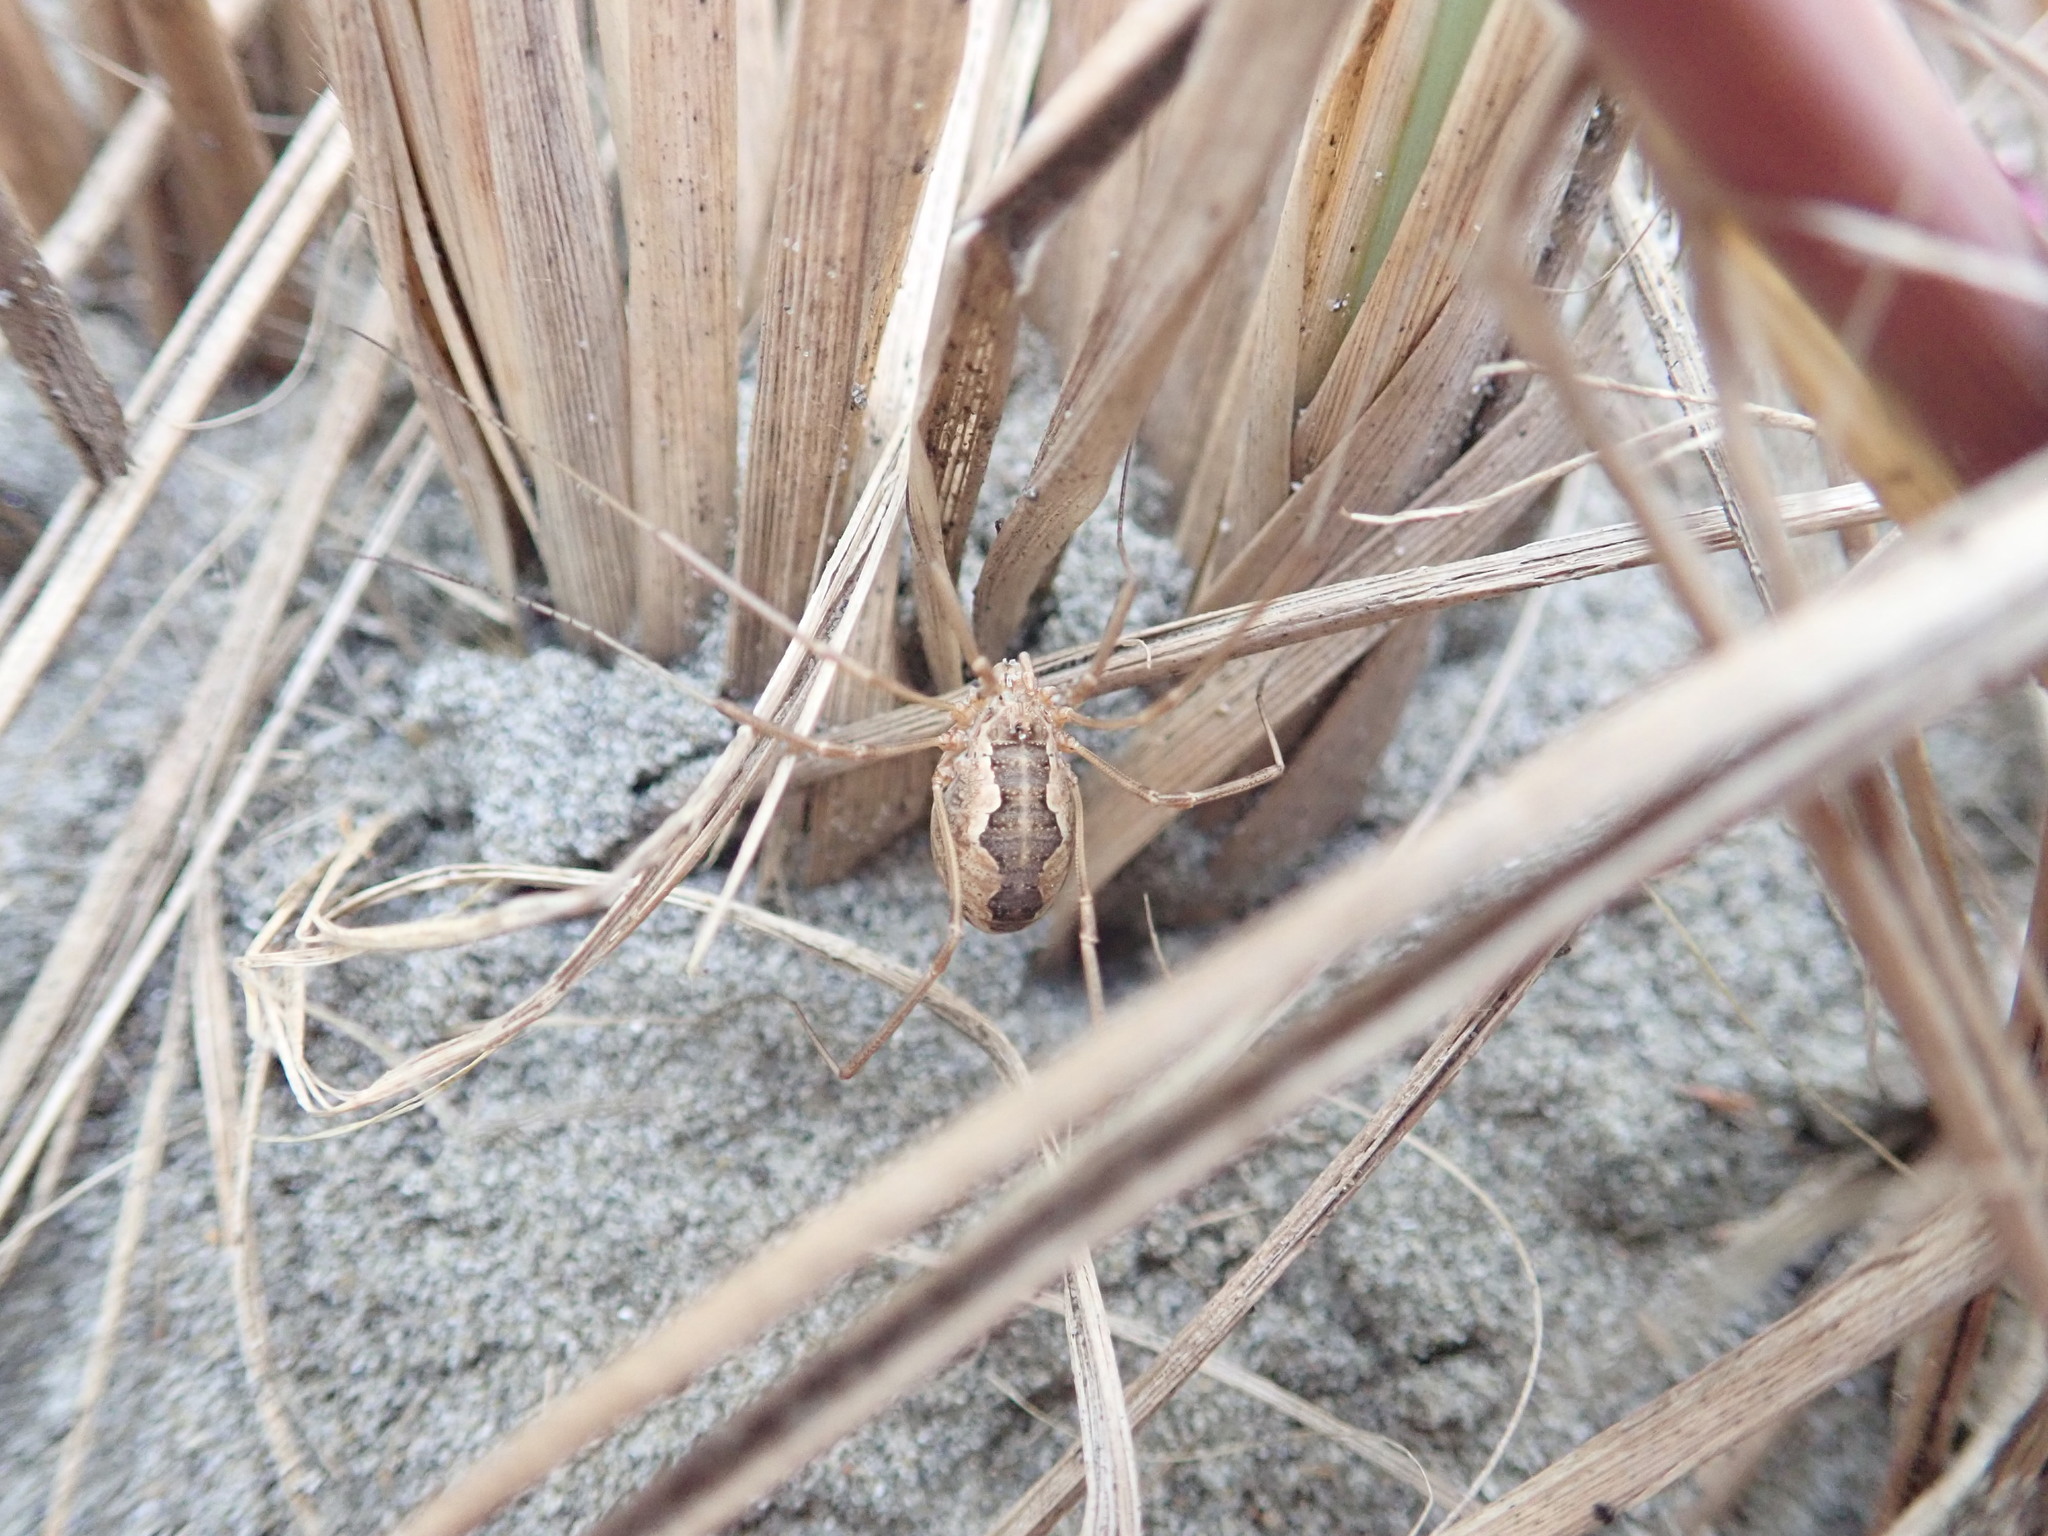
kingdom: Animalia
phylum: Arthropoda
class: Arachnida
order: Opiliones
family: Phalangiidae
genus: Phalangium
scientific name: Phalangium opilio
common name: Daddy longleg
